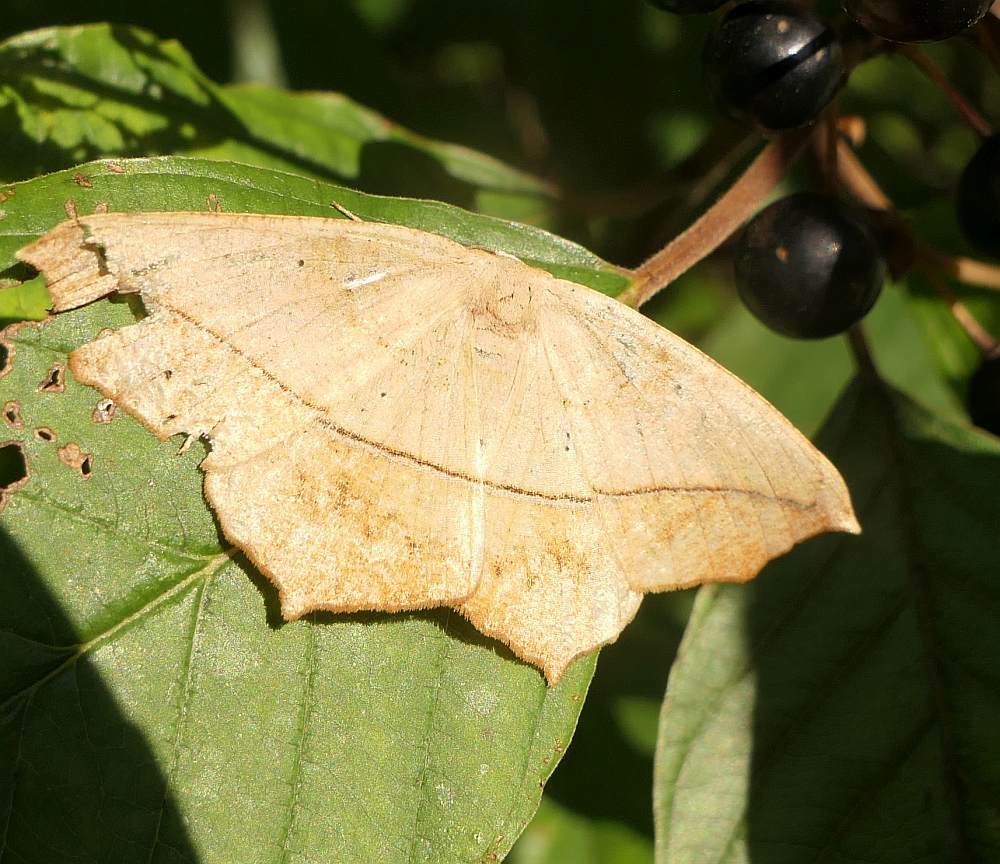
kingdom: Animalia
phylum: Arthropoda
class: Insecta
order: Lepidoptera
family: Geometridae
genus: Prochoerodes
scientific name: Prochoerodes lineola
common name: Large maple spanworm
